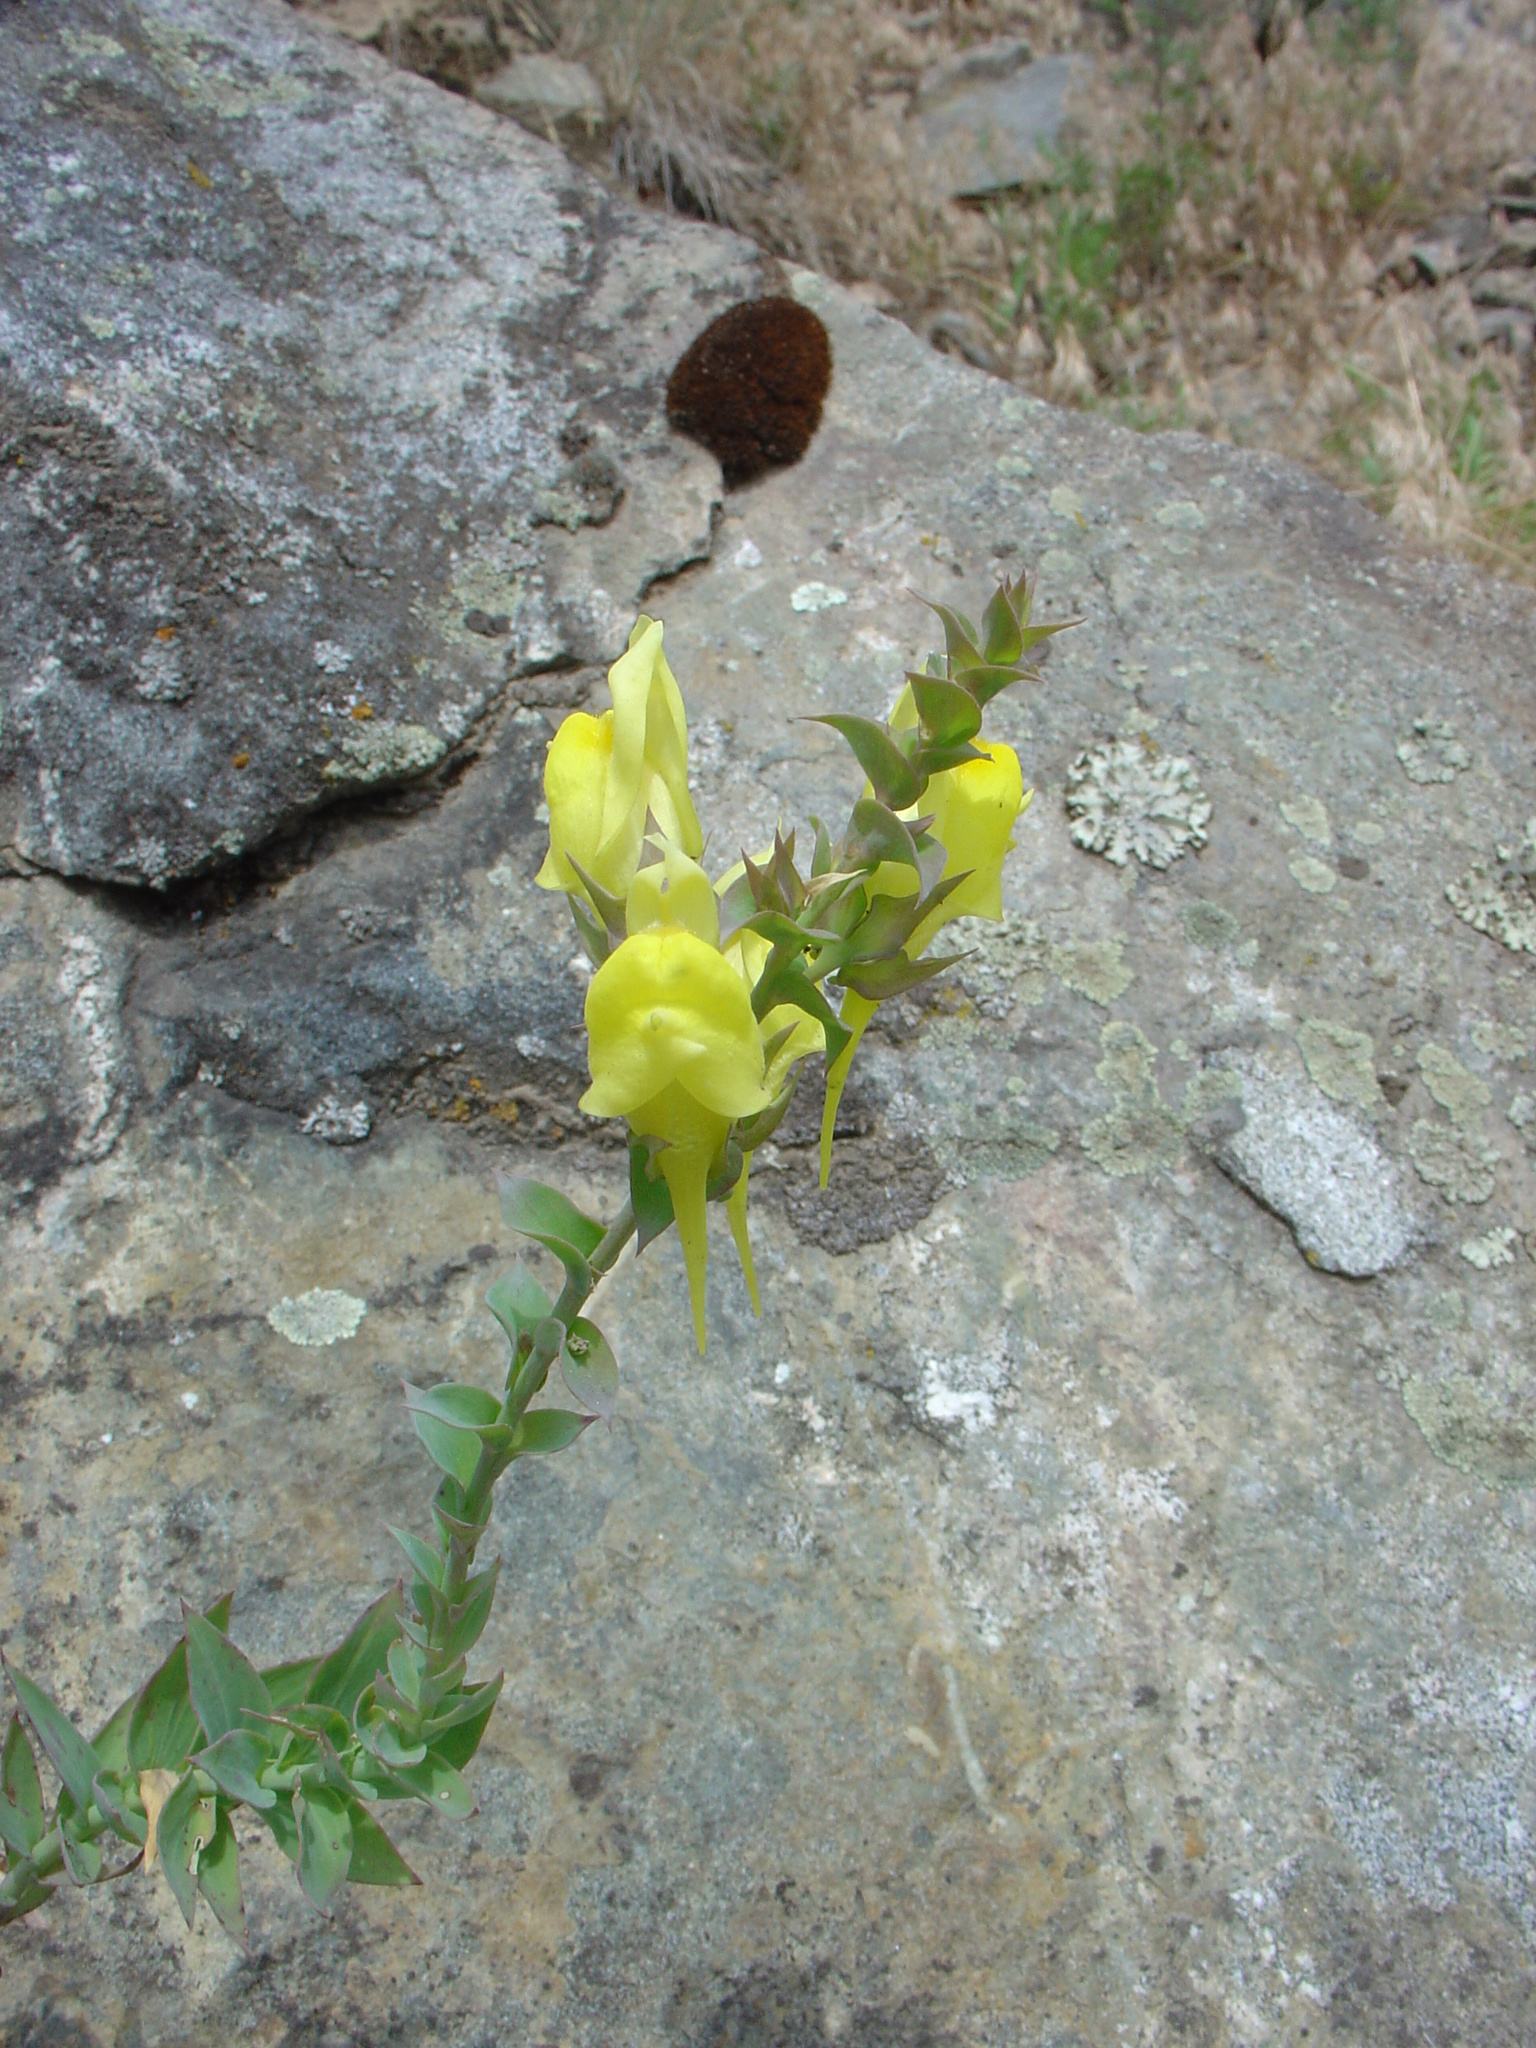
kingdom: Plantae
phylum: Tracheophyta
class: Magnoliopsida
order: Lamiales
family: Plantaginaceae
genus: Linaria
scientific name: Linaria dalmatica
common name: Dalmatian toadflax
